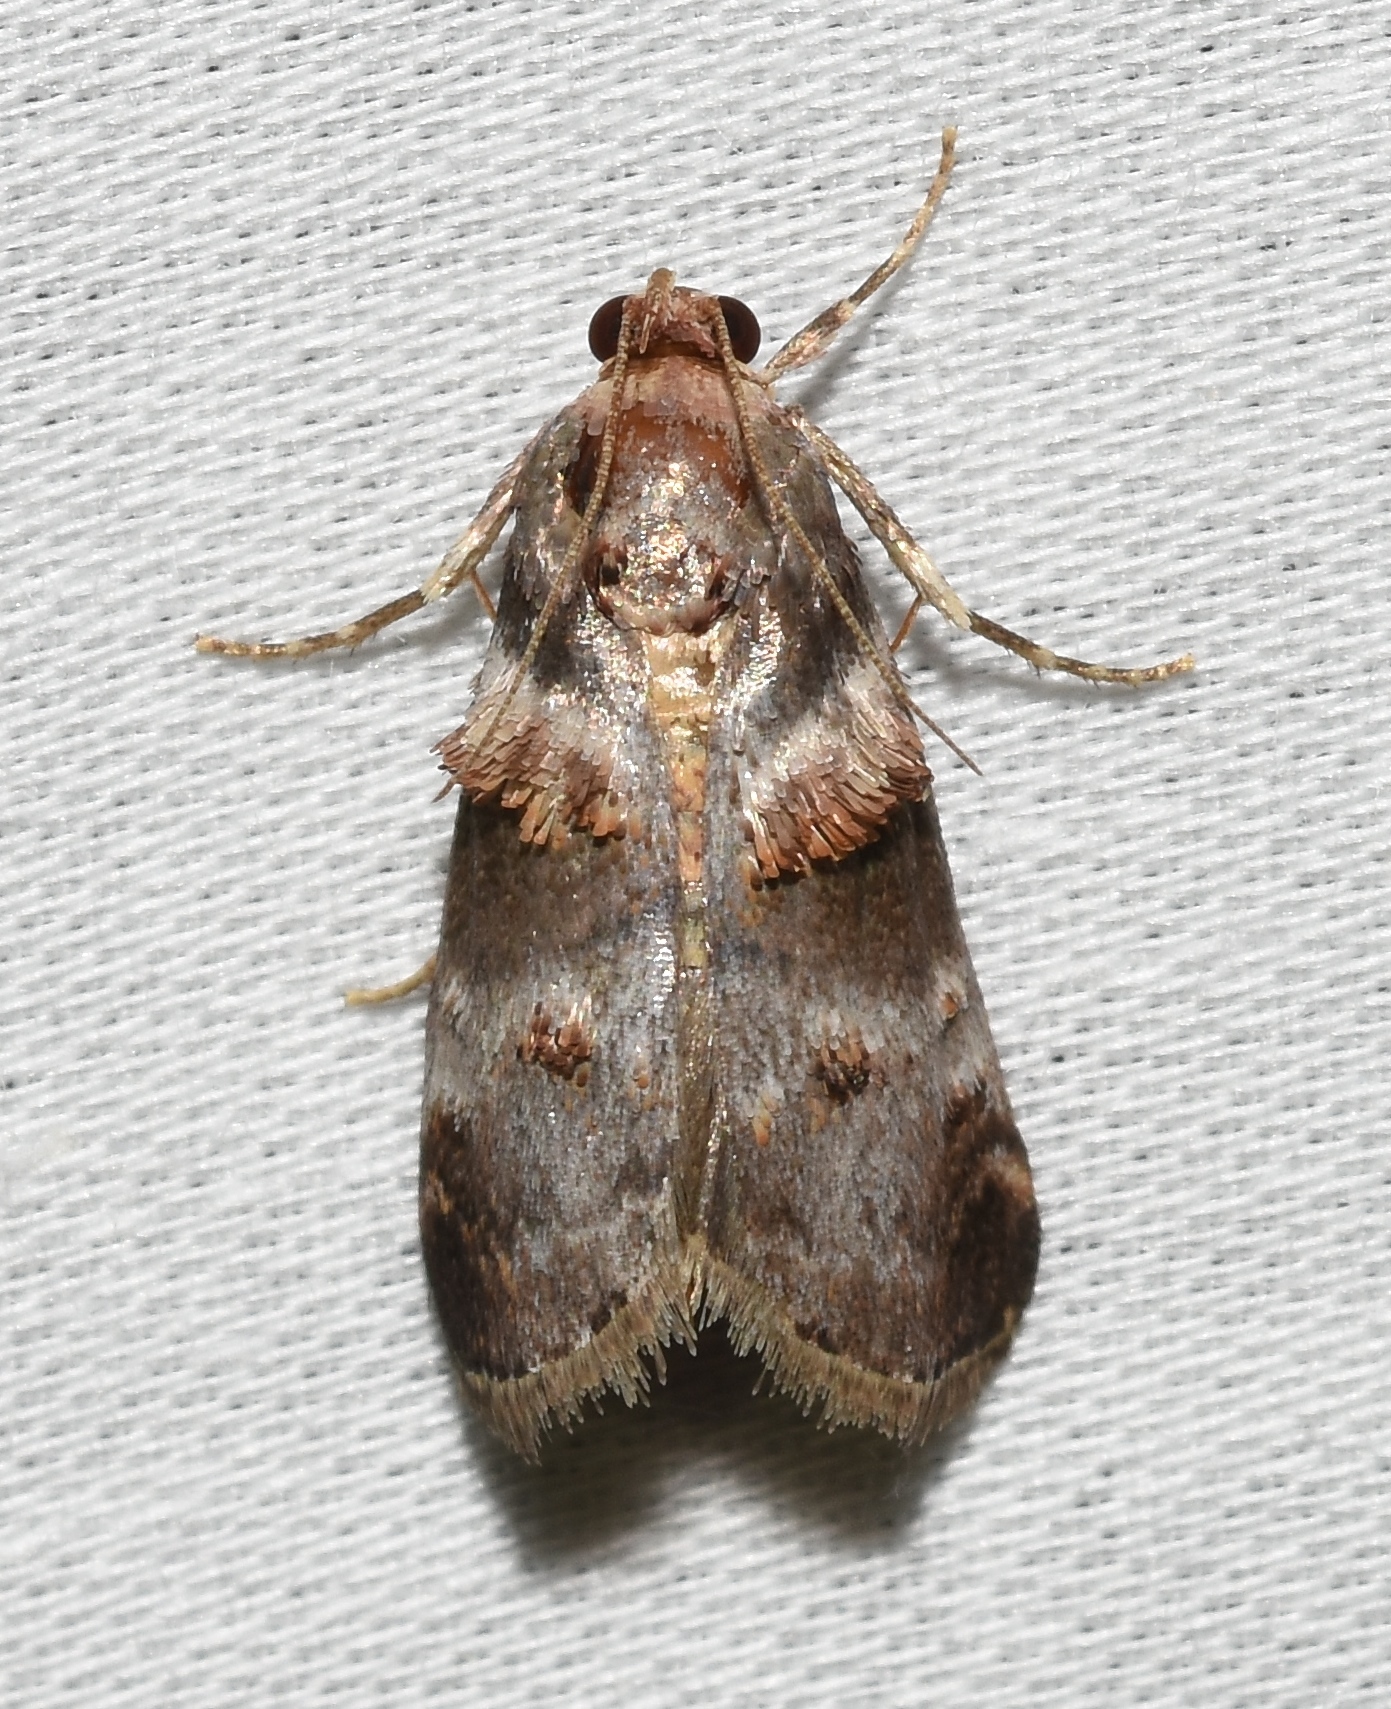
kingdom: Animalia
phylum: Arthropoda
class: Insecta
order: Lepidoptera
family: Pyralidae
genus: Oneida
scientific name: Oneida lunulalis
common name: Orange-tufted oneida moth
